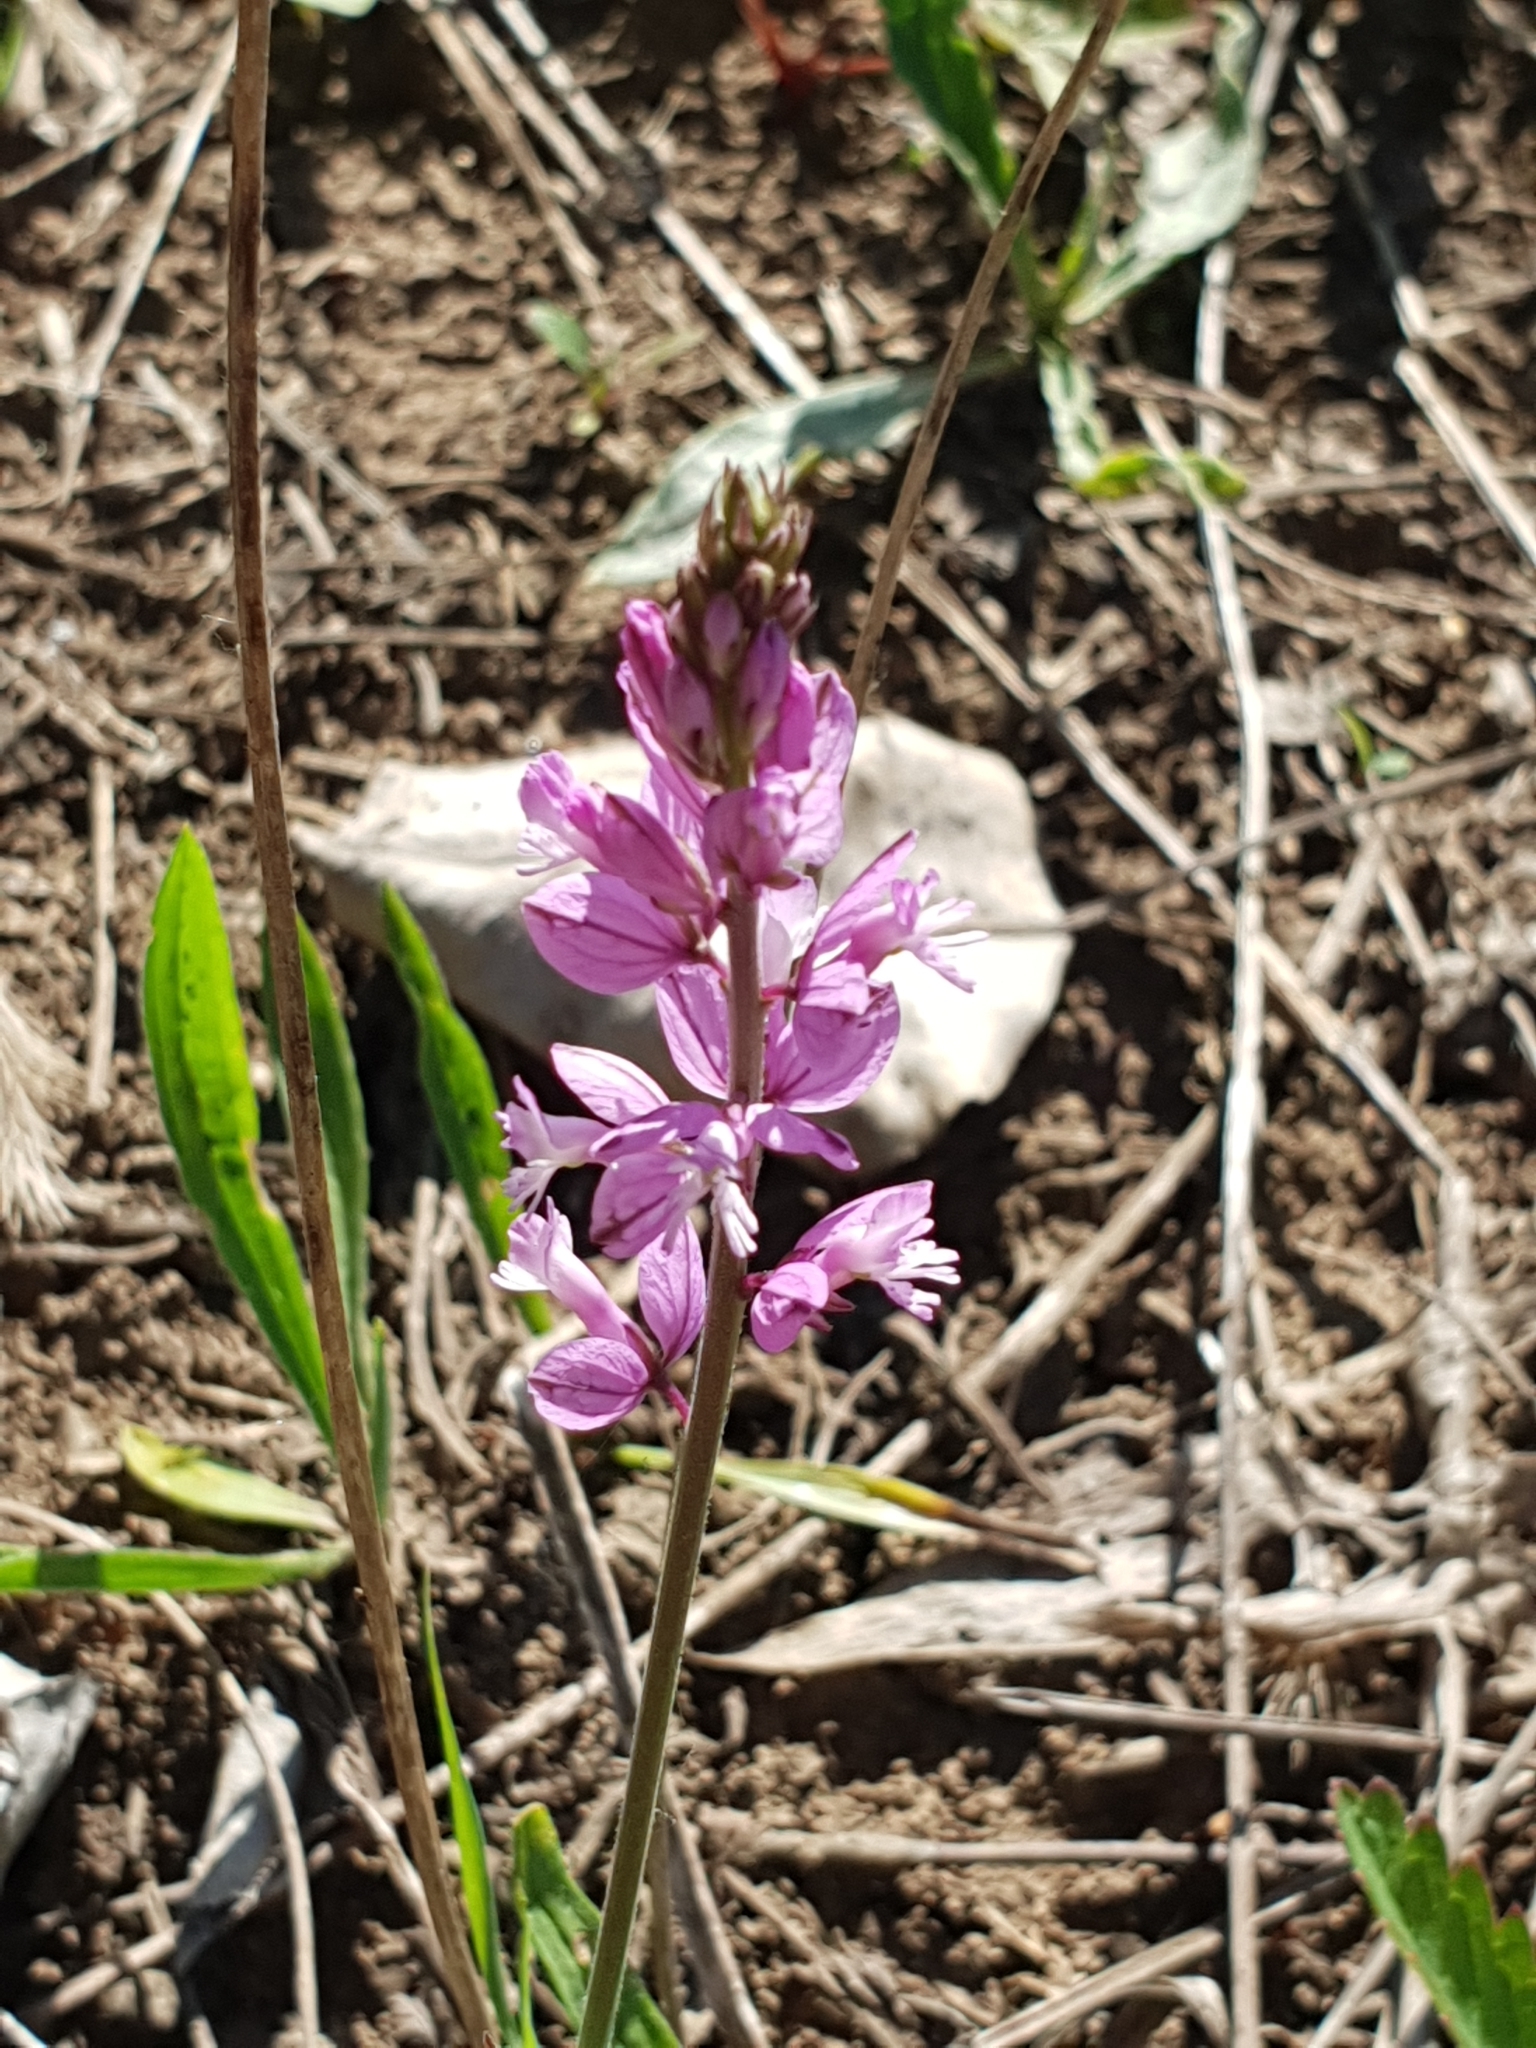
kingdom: Plantae
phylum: Tracheophyta
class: Magnoliopsida
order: Fabales
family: Polygalaceae
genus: Polygala
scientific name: Polygala major
